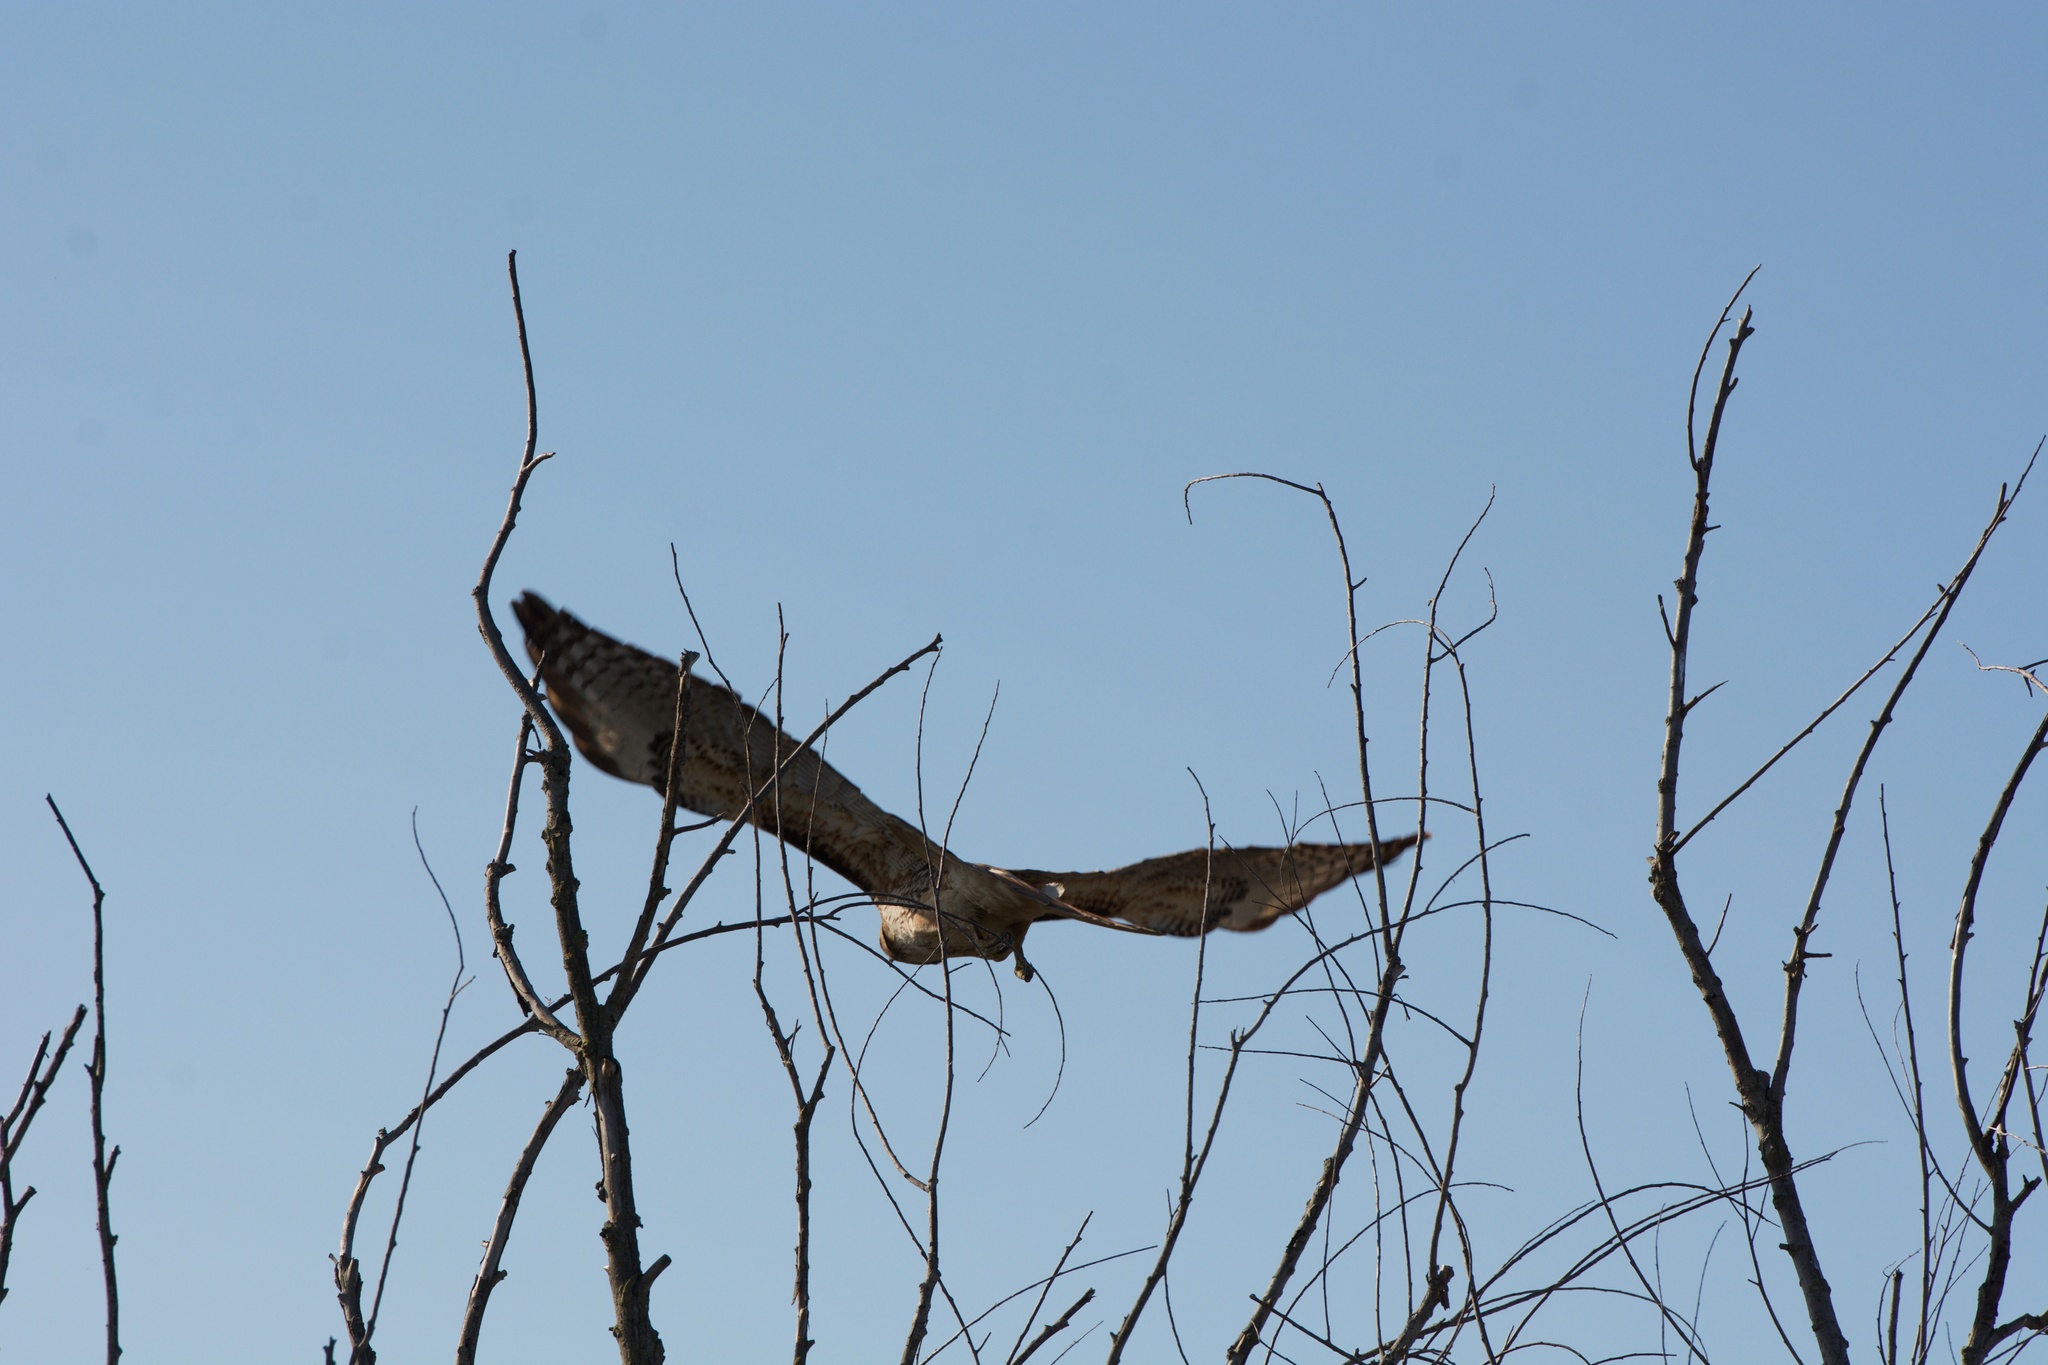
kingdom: Animalia
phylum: Chordata
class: Aves
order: Accipitriformes
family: Accipitridae
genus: Buteo
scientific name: Buteo jamaicensis
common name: Red-tailed hawk
